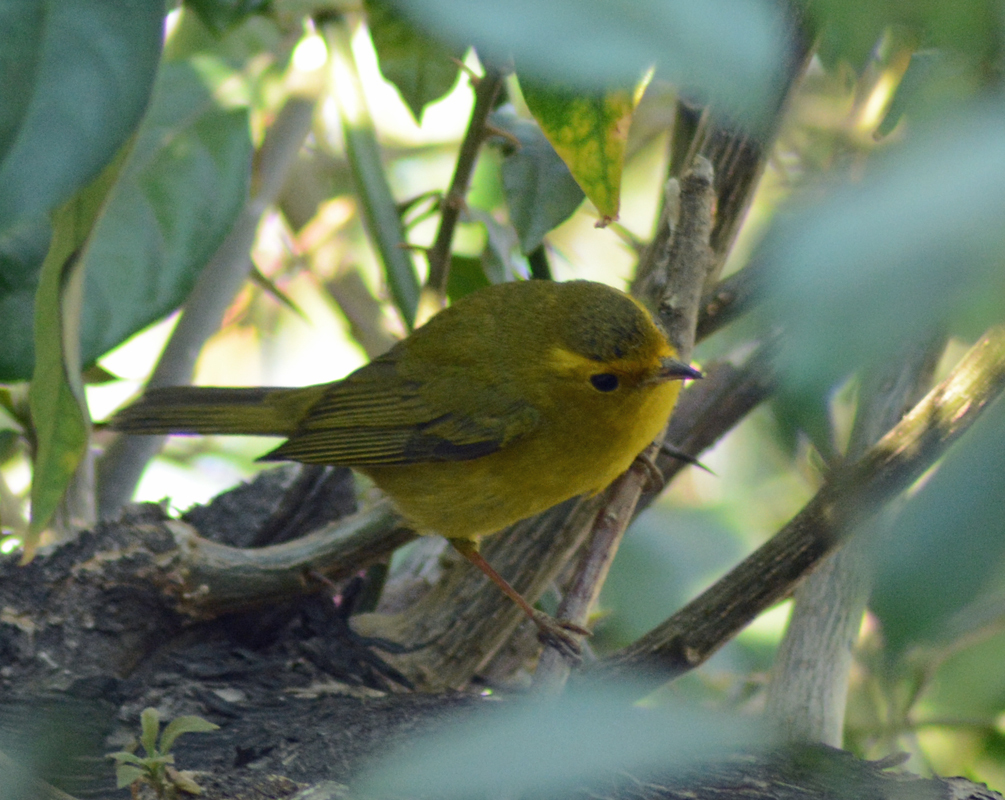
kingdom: Animalia
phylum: Chordata
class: Aves
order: Passeriformes
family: Parulidae
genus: Cardellina
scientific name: Cardellina pusilla
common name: Wilson's warbler
